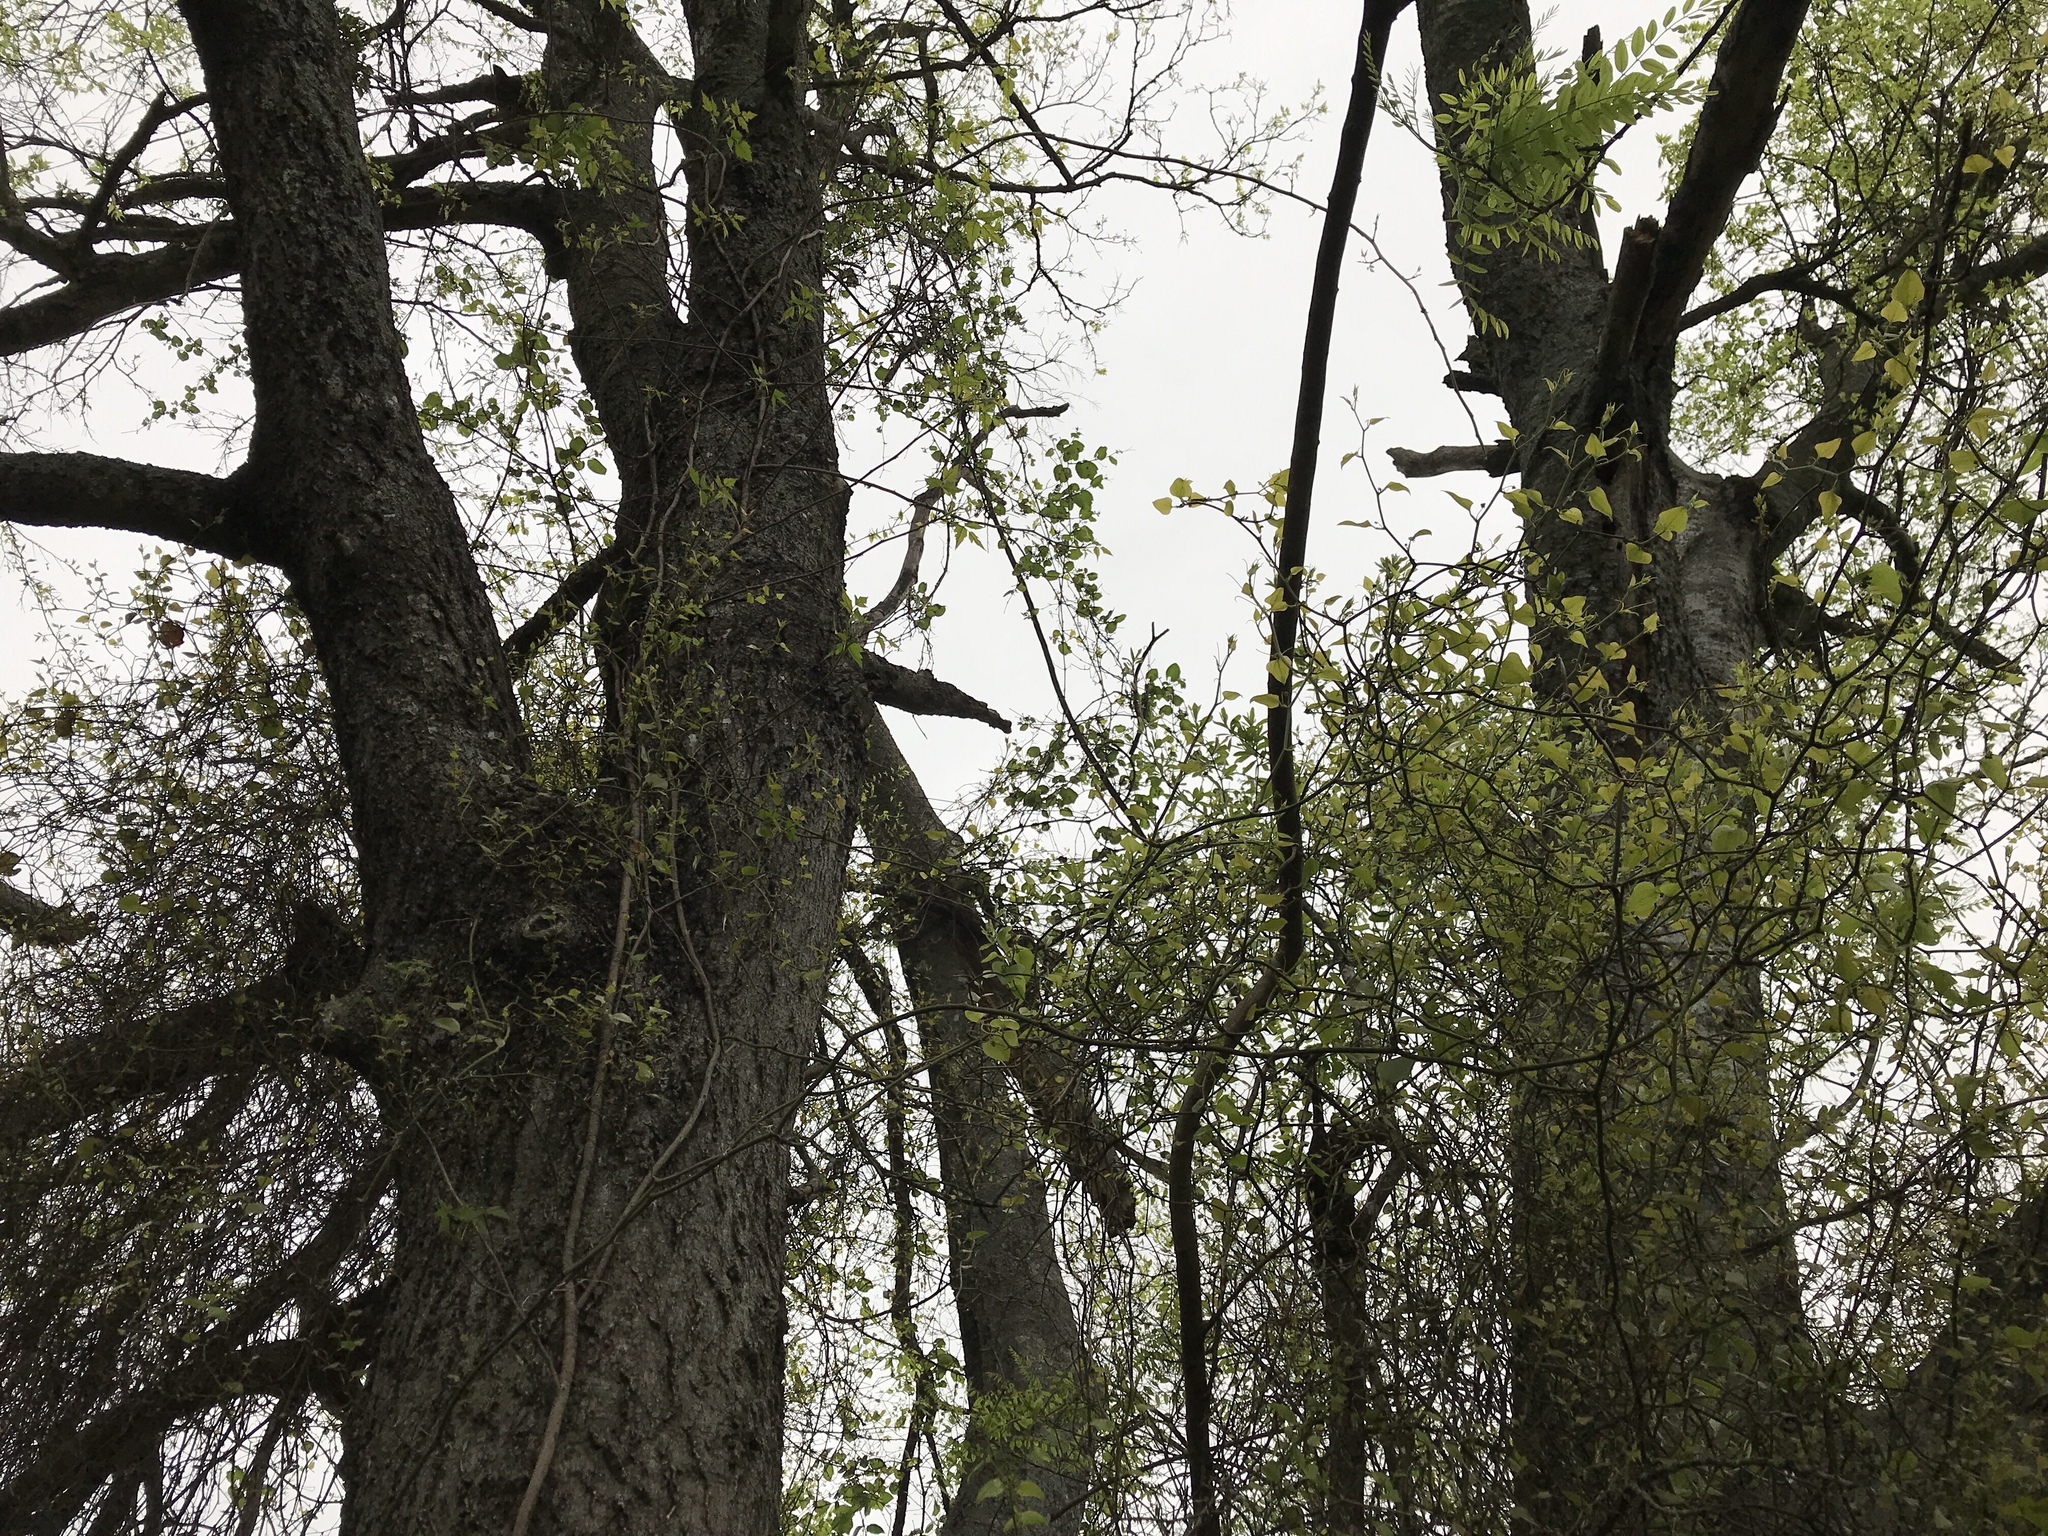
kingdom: Plantae
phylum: Tracheophyta
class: Magnoliopsida
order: Rosales
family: Cannabaceae
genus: Celtis
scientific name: Celtis laevigata
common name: Sugarberry
